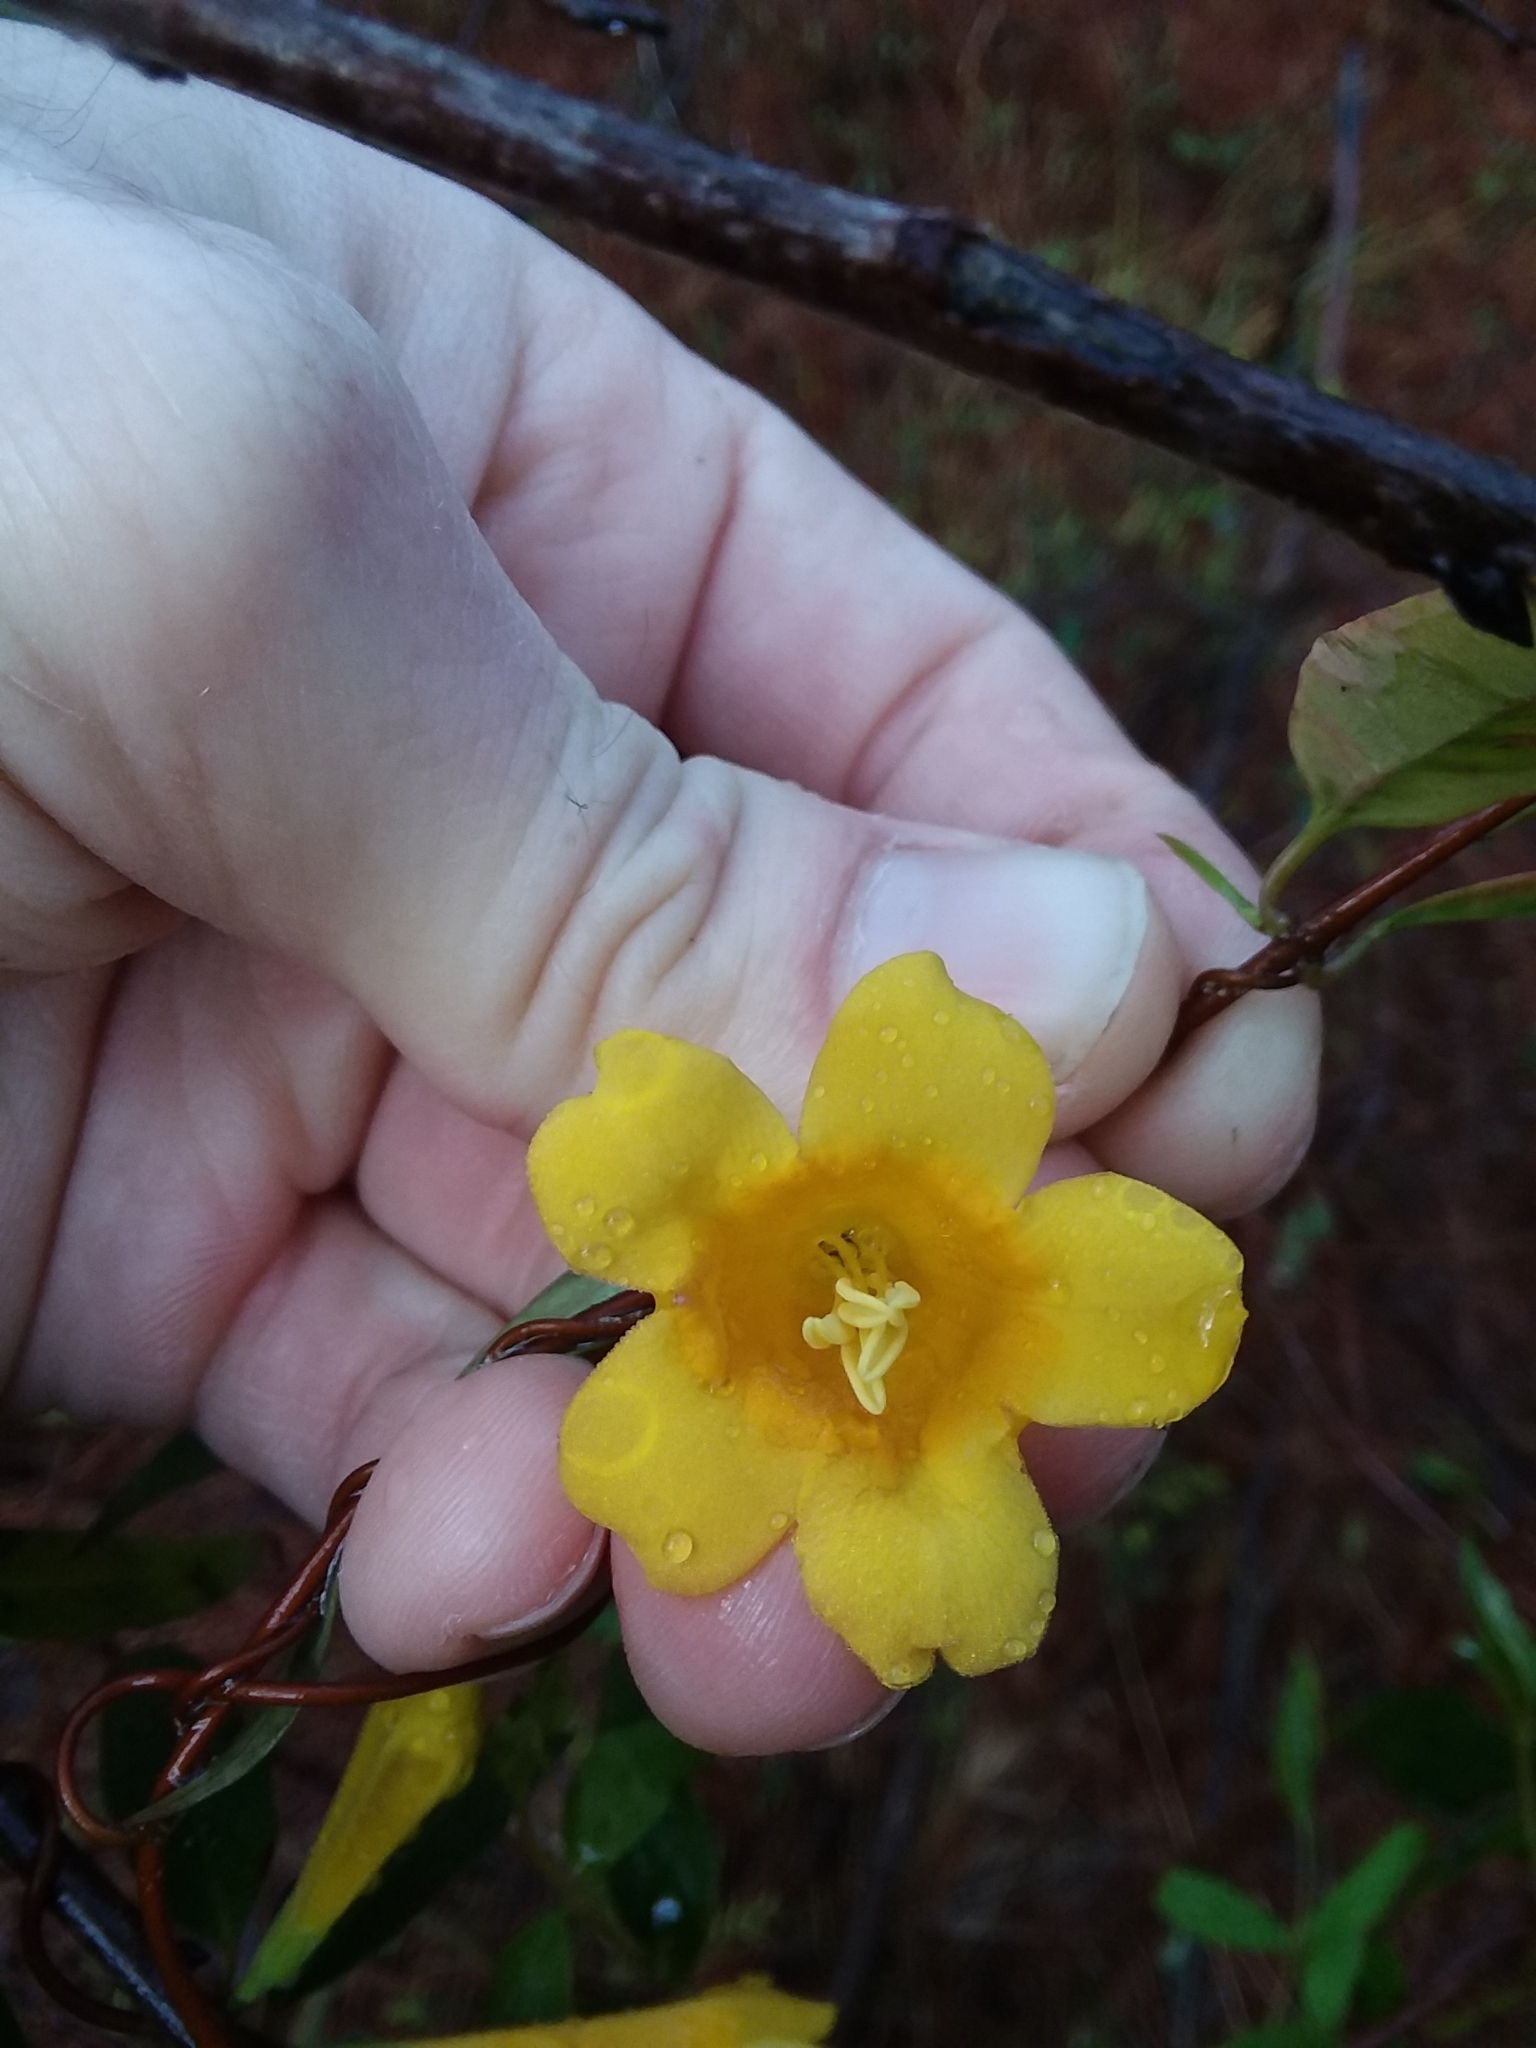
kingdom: Plantae
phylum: Tracheophyta
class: Magnoliopsida
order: Gentianales
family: Gelsemiaceae
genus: Gelsemium
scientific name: Gelsemium sempervirens
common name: Carolina-jasmine
